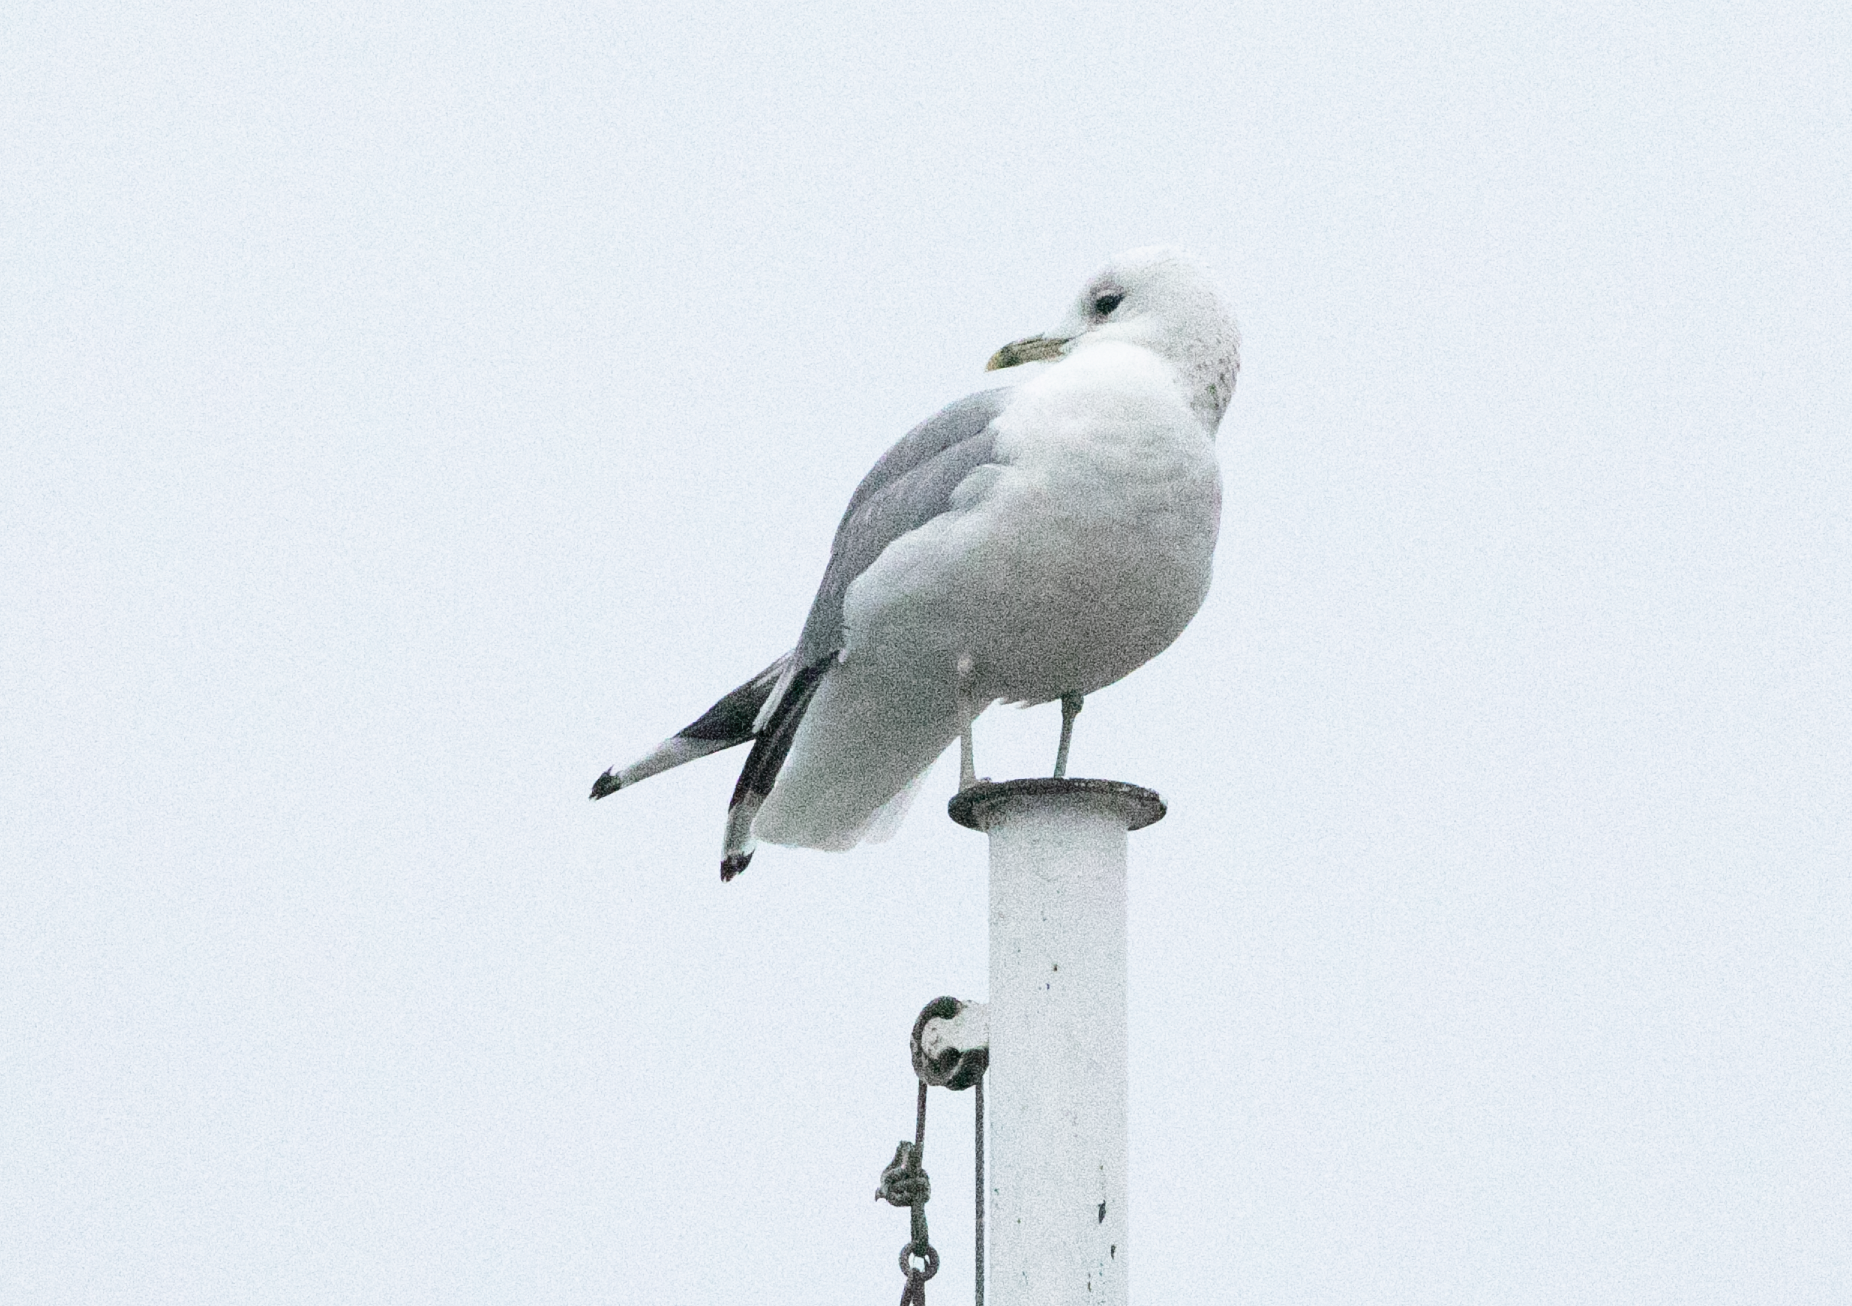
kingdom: Animalia
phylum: Chordata
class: Aves
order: Charadriiformes
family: Laridae
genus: Larus
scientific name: Larus canus
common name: Mew gull
